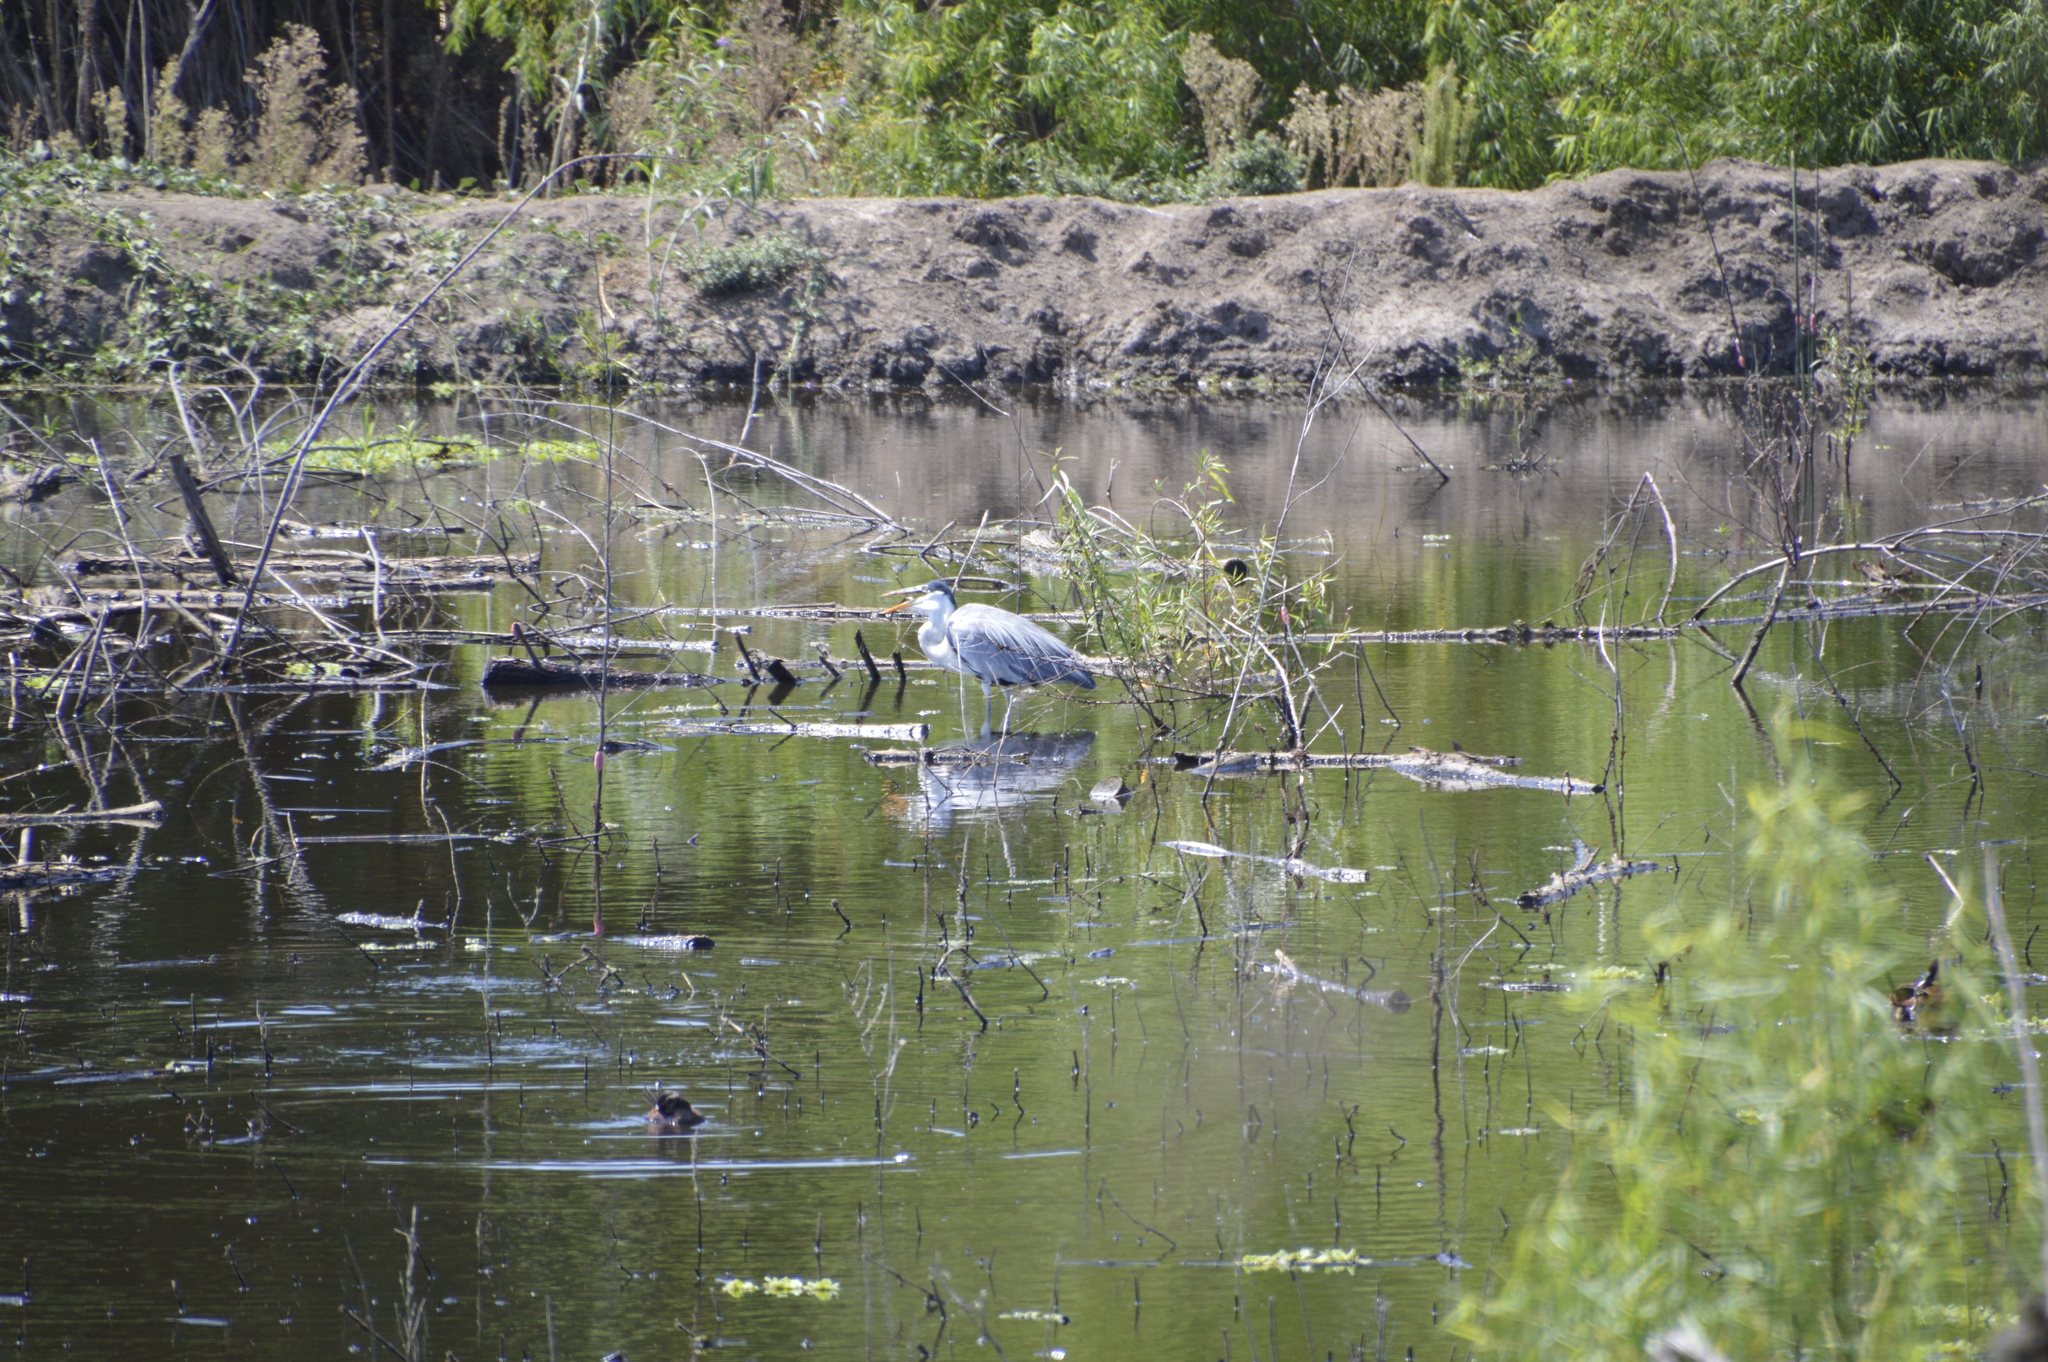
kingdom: Animalia
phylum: Chordata
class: Aves
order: Pelecaniformes
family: Ardeidae
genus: Ardea
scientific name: Ardea cocoi
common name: Cocoi heron
